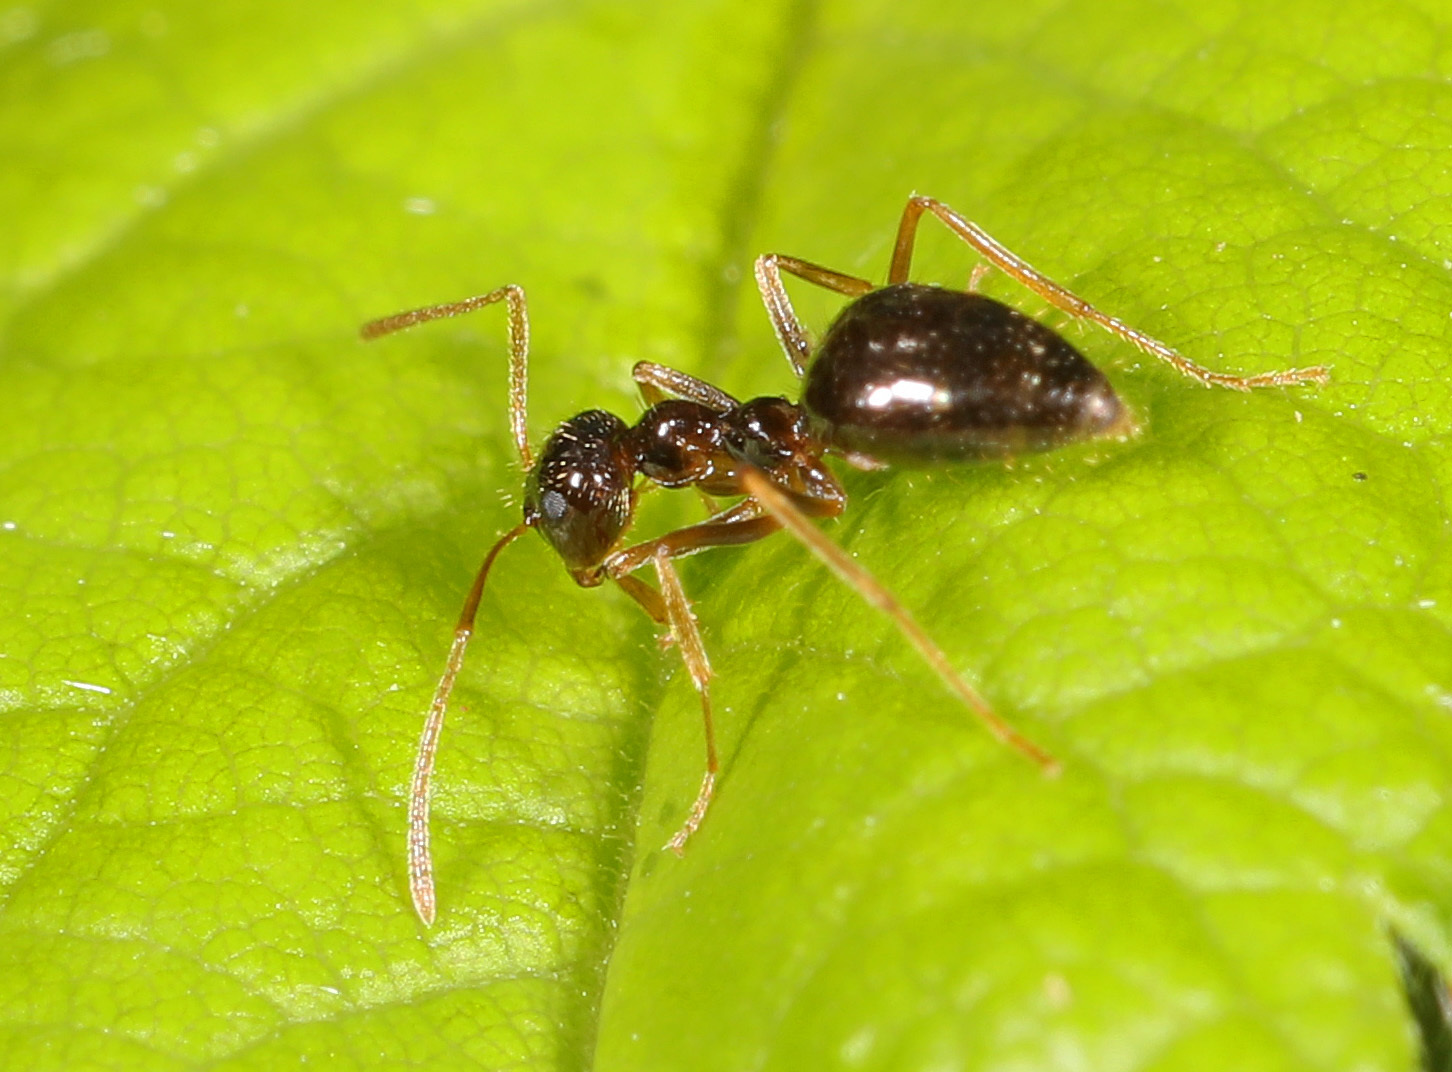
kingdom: Animalia
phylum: Arthropoda
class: Insecta
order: Hymenoptera
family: Formicidae
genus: Prenolepis
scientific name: Prenolepis imparis
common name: Small honey ant
